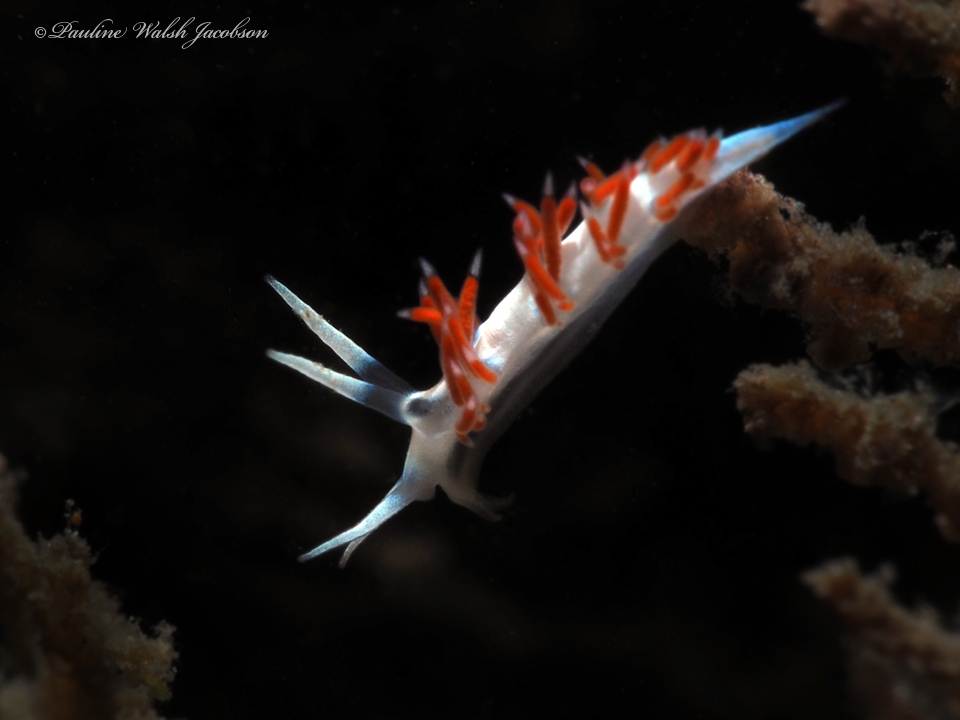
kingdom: Animalia
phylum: Mollusca
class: Gastropoda
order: Nudibranchia
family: Flabellinidae
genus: Flabellina
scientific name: Flabellina dushia
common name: Dushia flabellina
